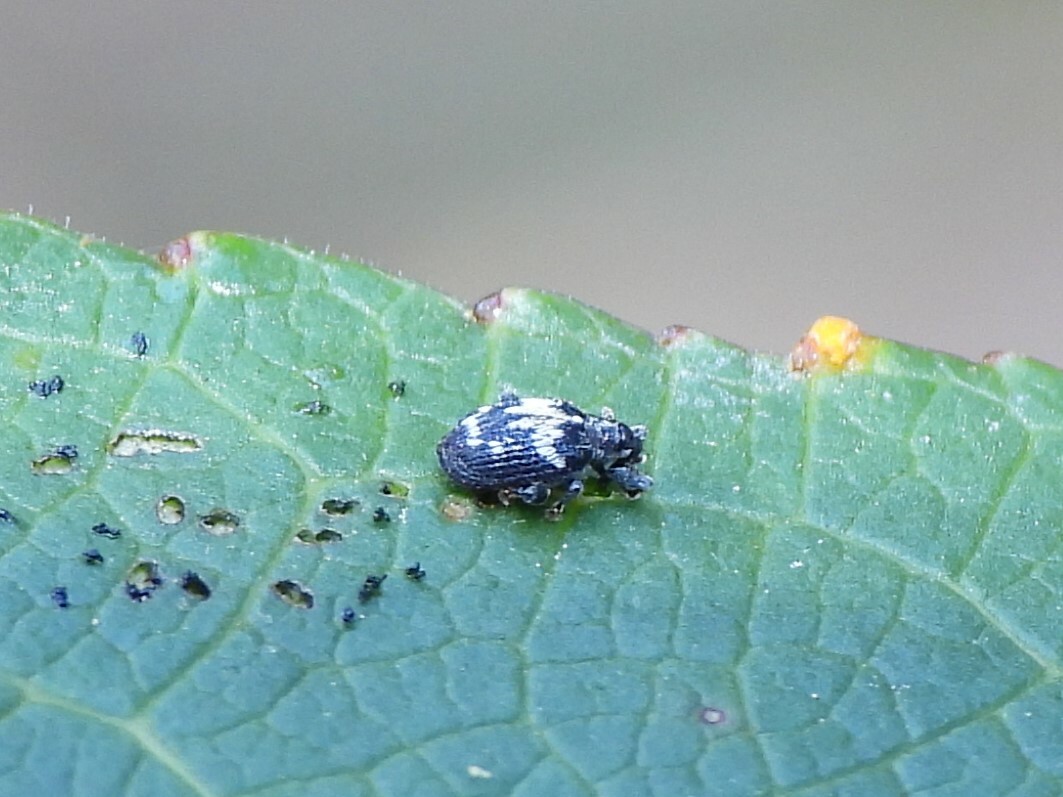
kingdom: Animalia
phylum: Arthropoda
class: Insecta
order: Coleoptera
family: Curculionidae
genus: Tachyerges
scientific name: Tachyerges salicis
